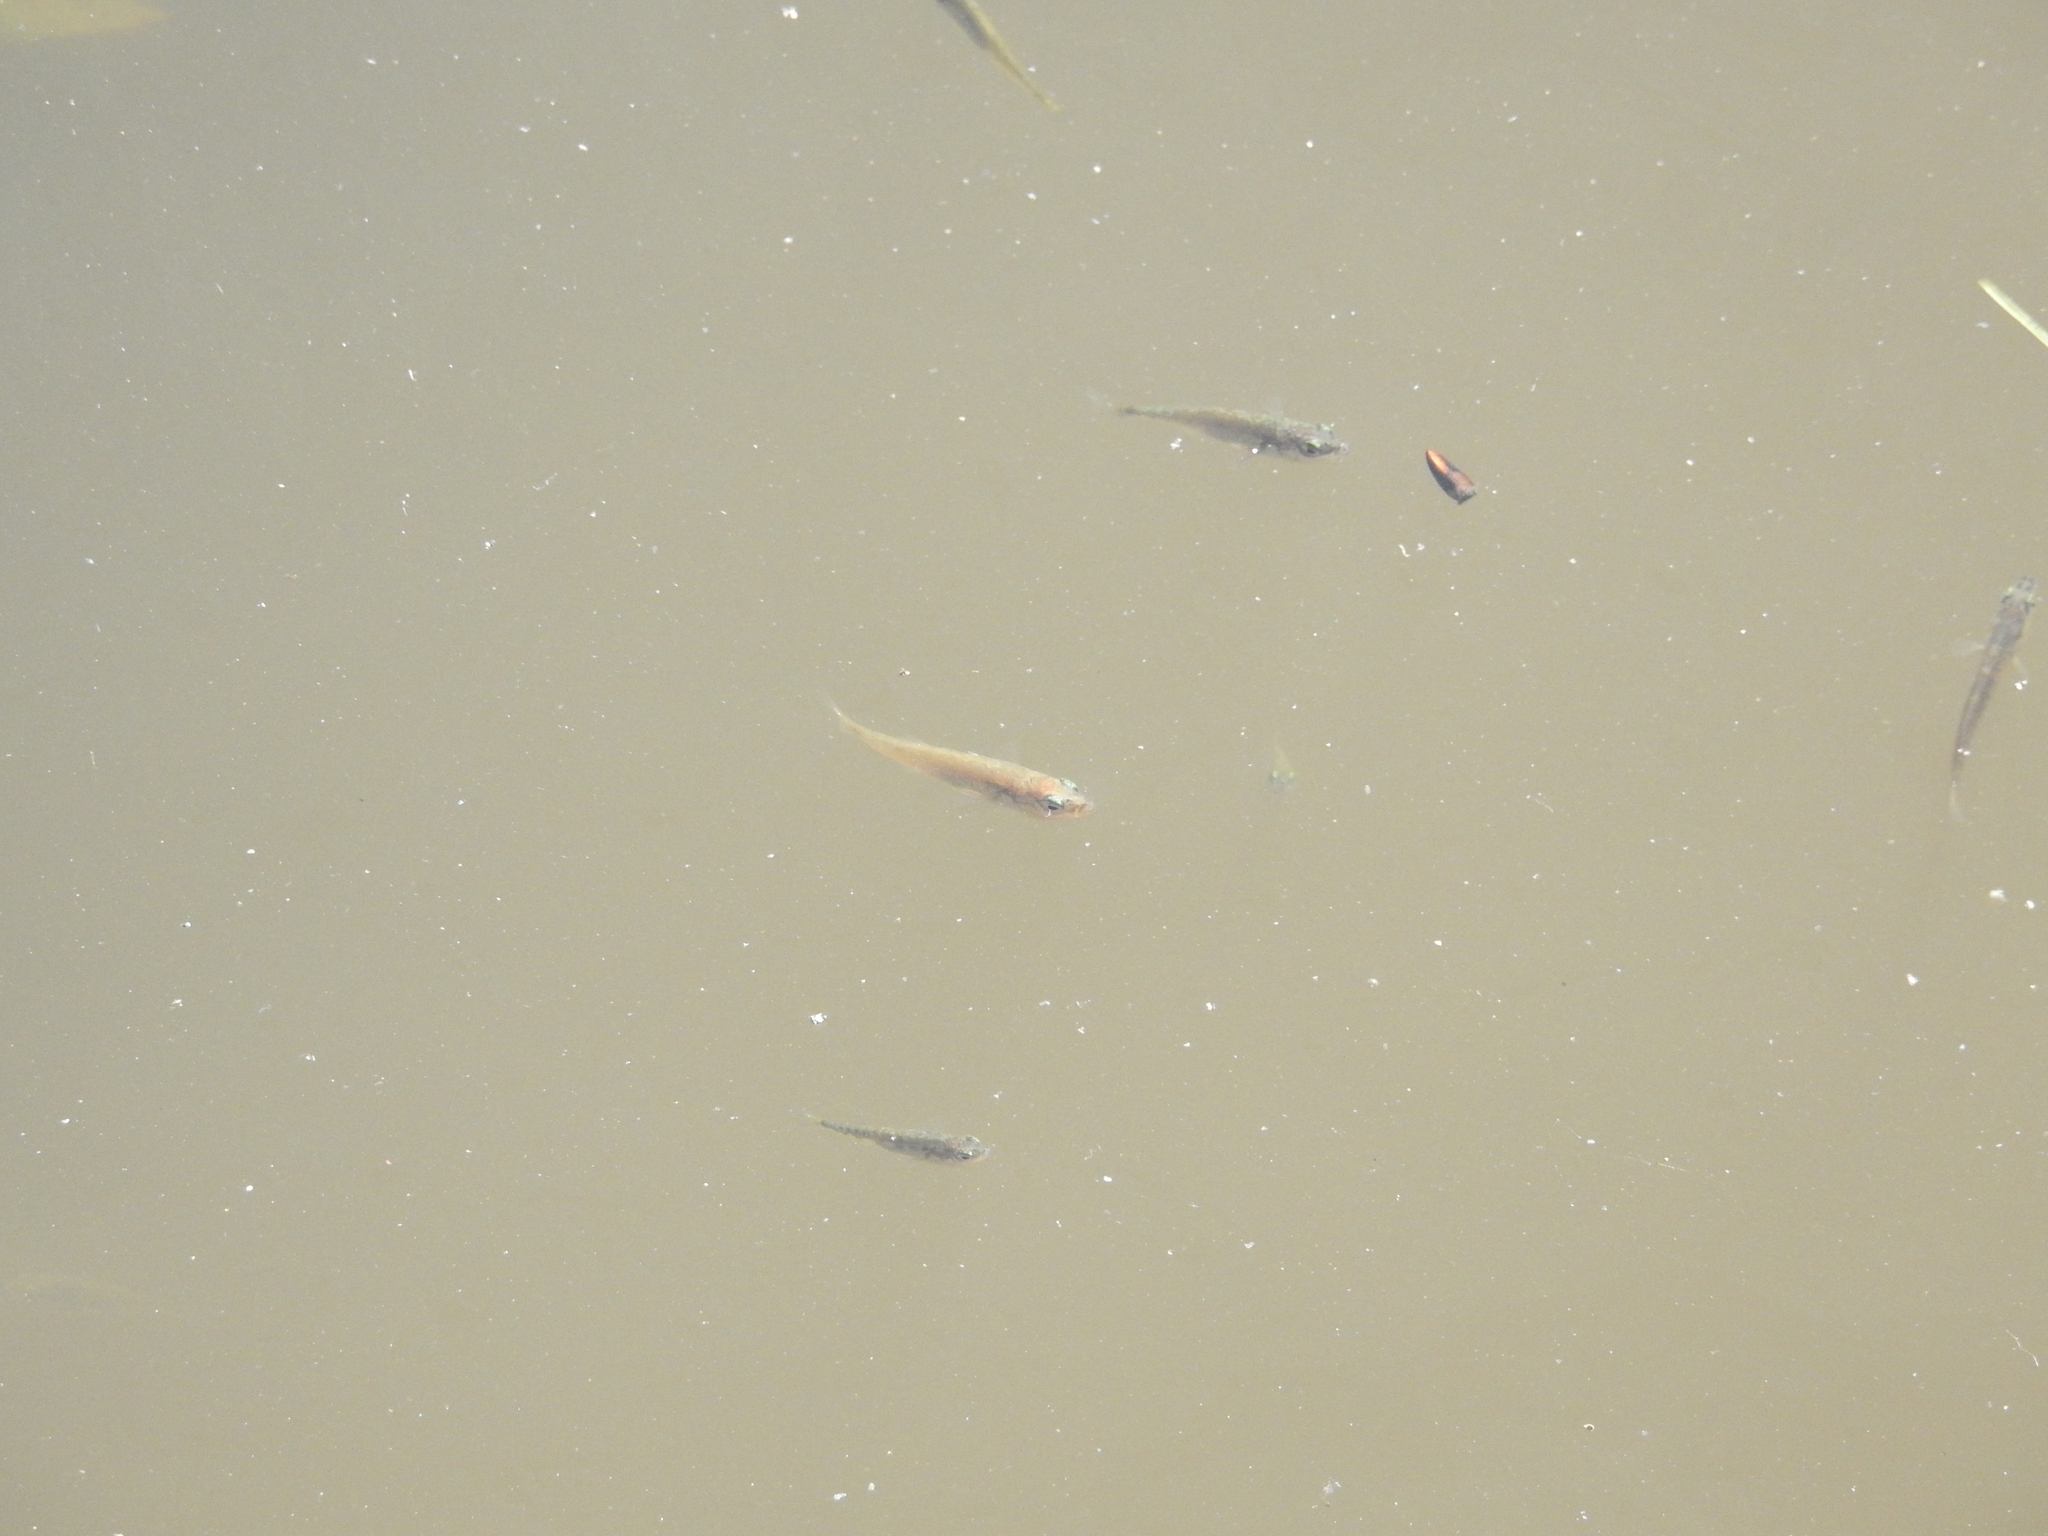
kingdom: Animalia
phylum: Chordata
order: Gasterosteiformes
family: Gasterosteidae
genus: Gasterosteus
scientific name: Gasterosteus aculeatus
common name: Three-spined stickleback
